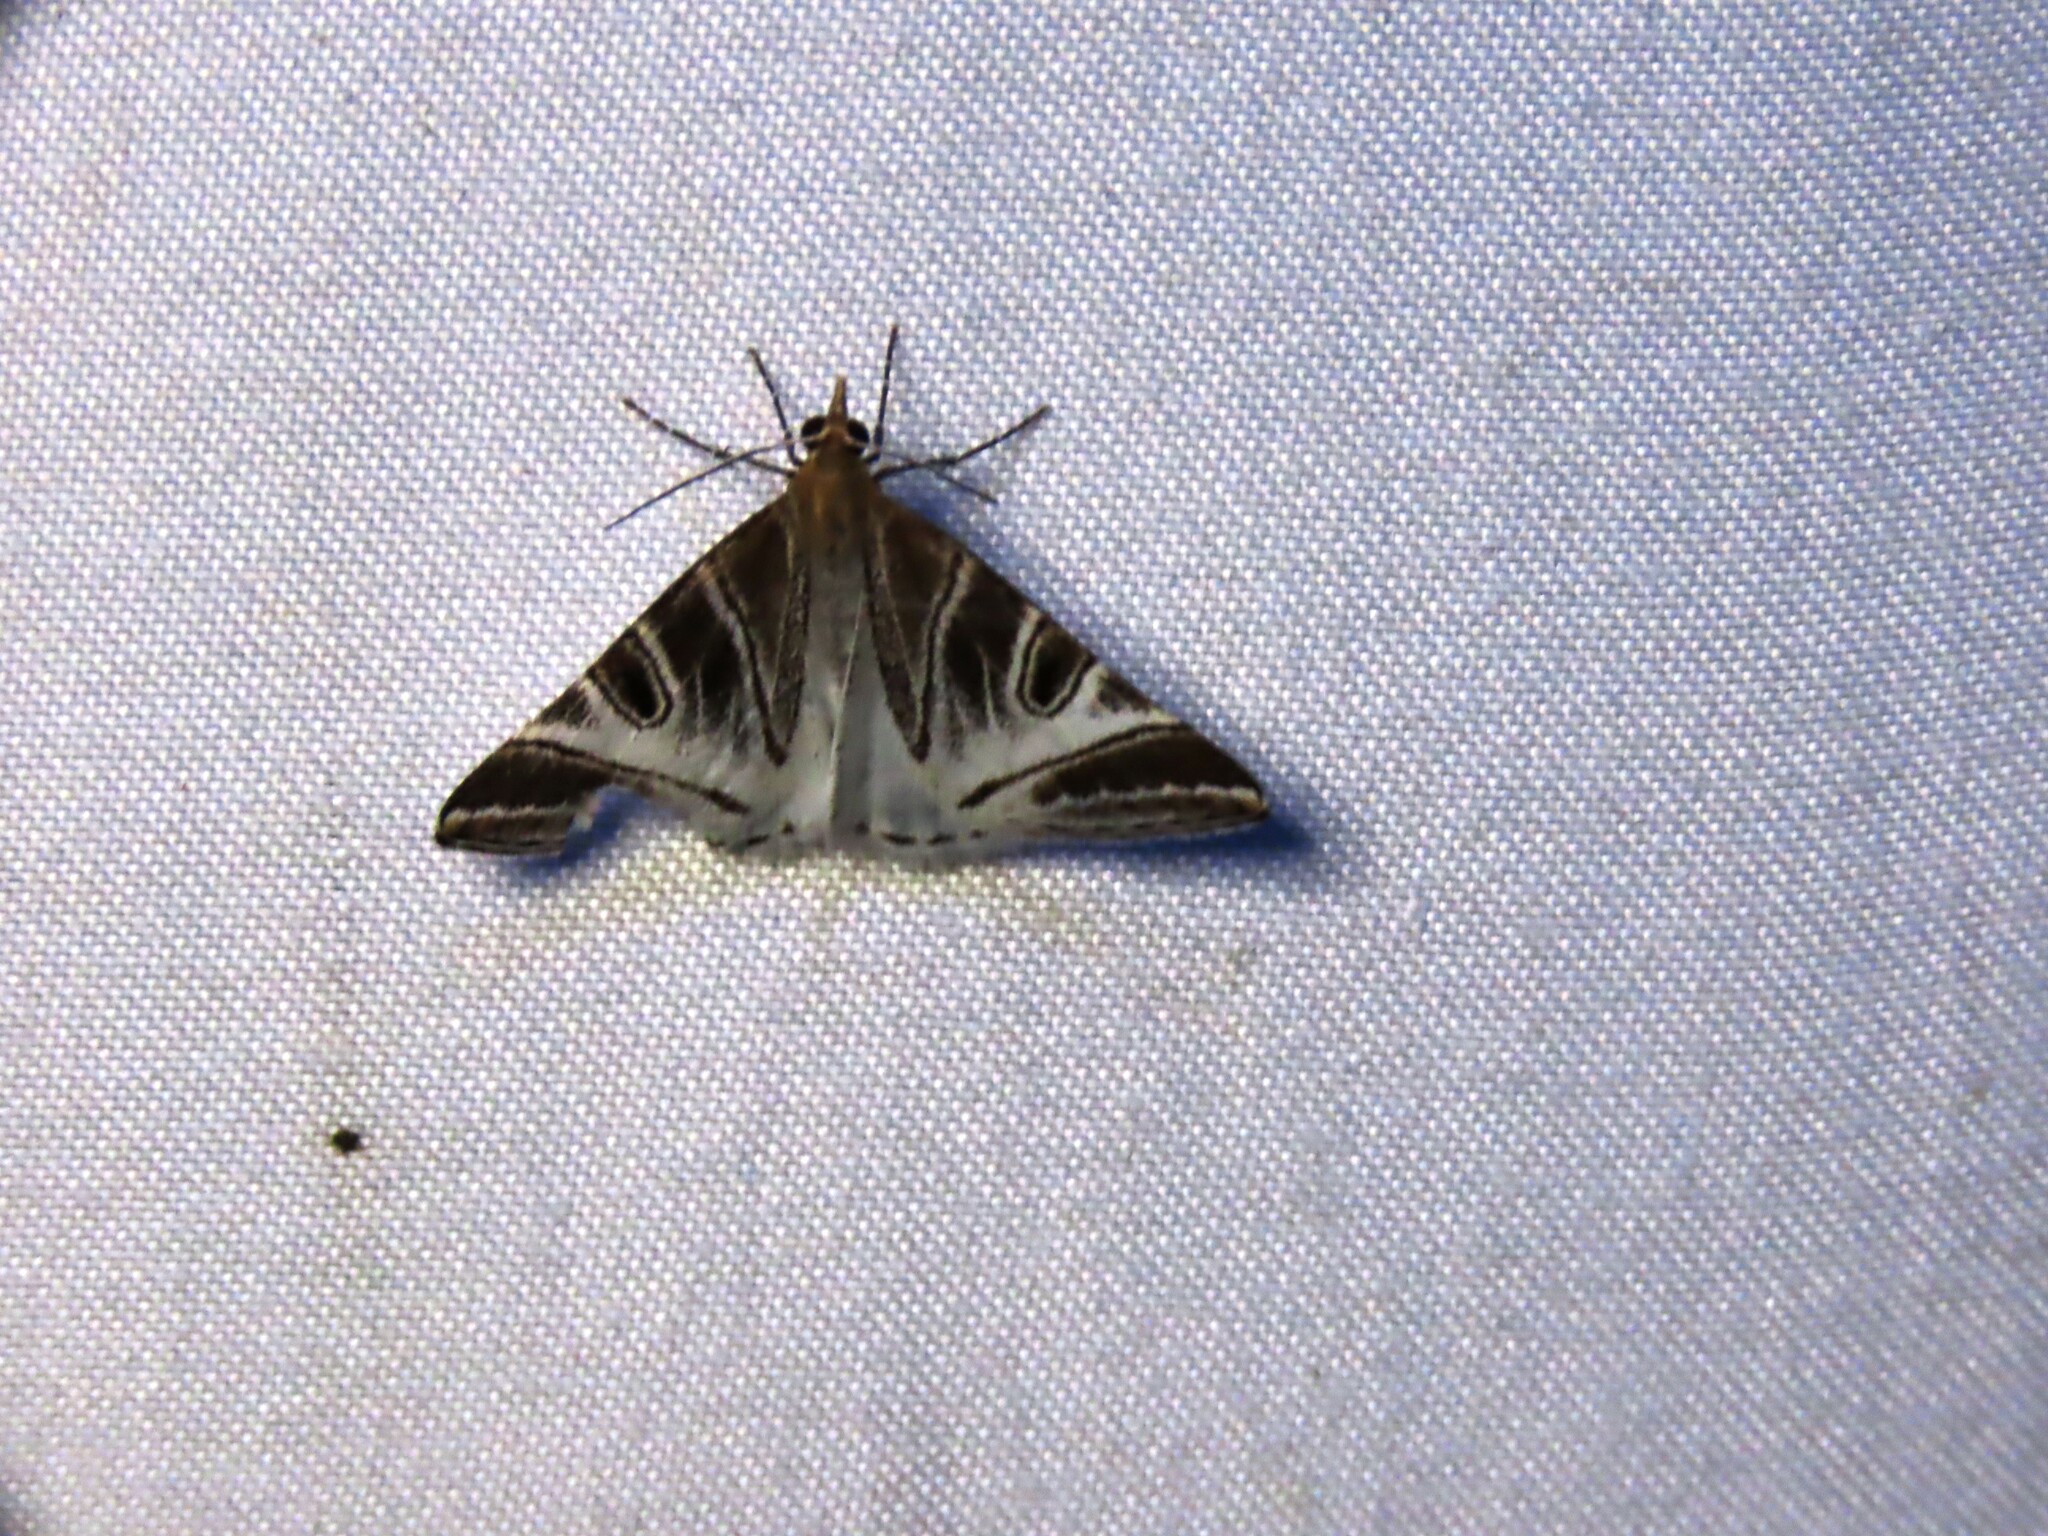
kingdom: Animalia
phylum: Arthropoda
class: Insecta
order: Lepidoptera
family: Geometridae
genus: Phrataria
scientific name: Phrataria replicataria
